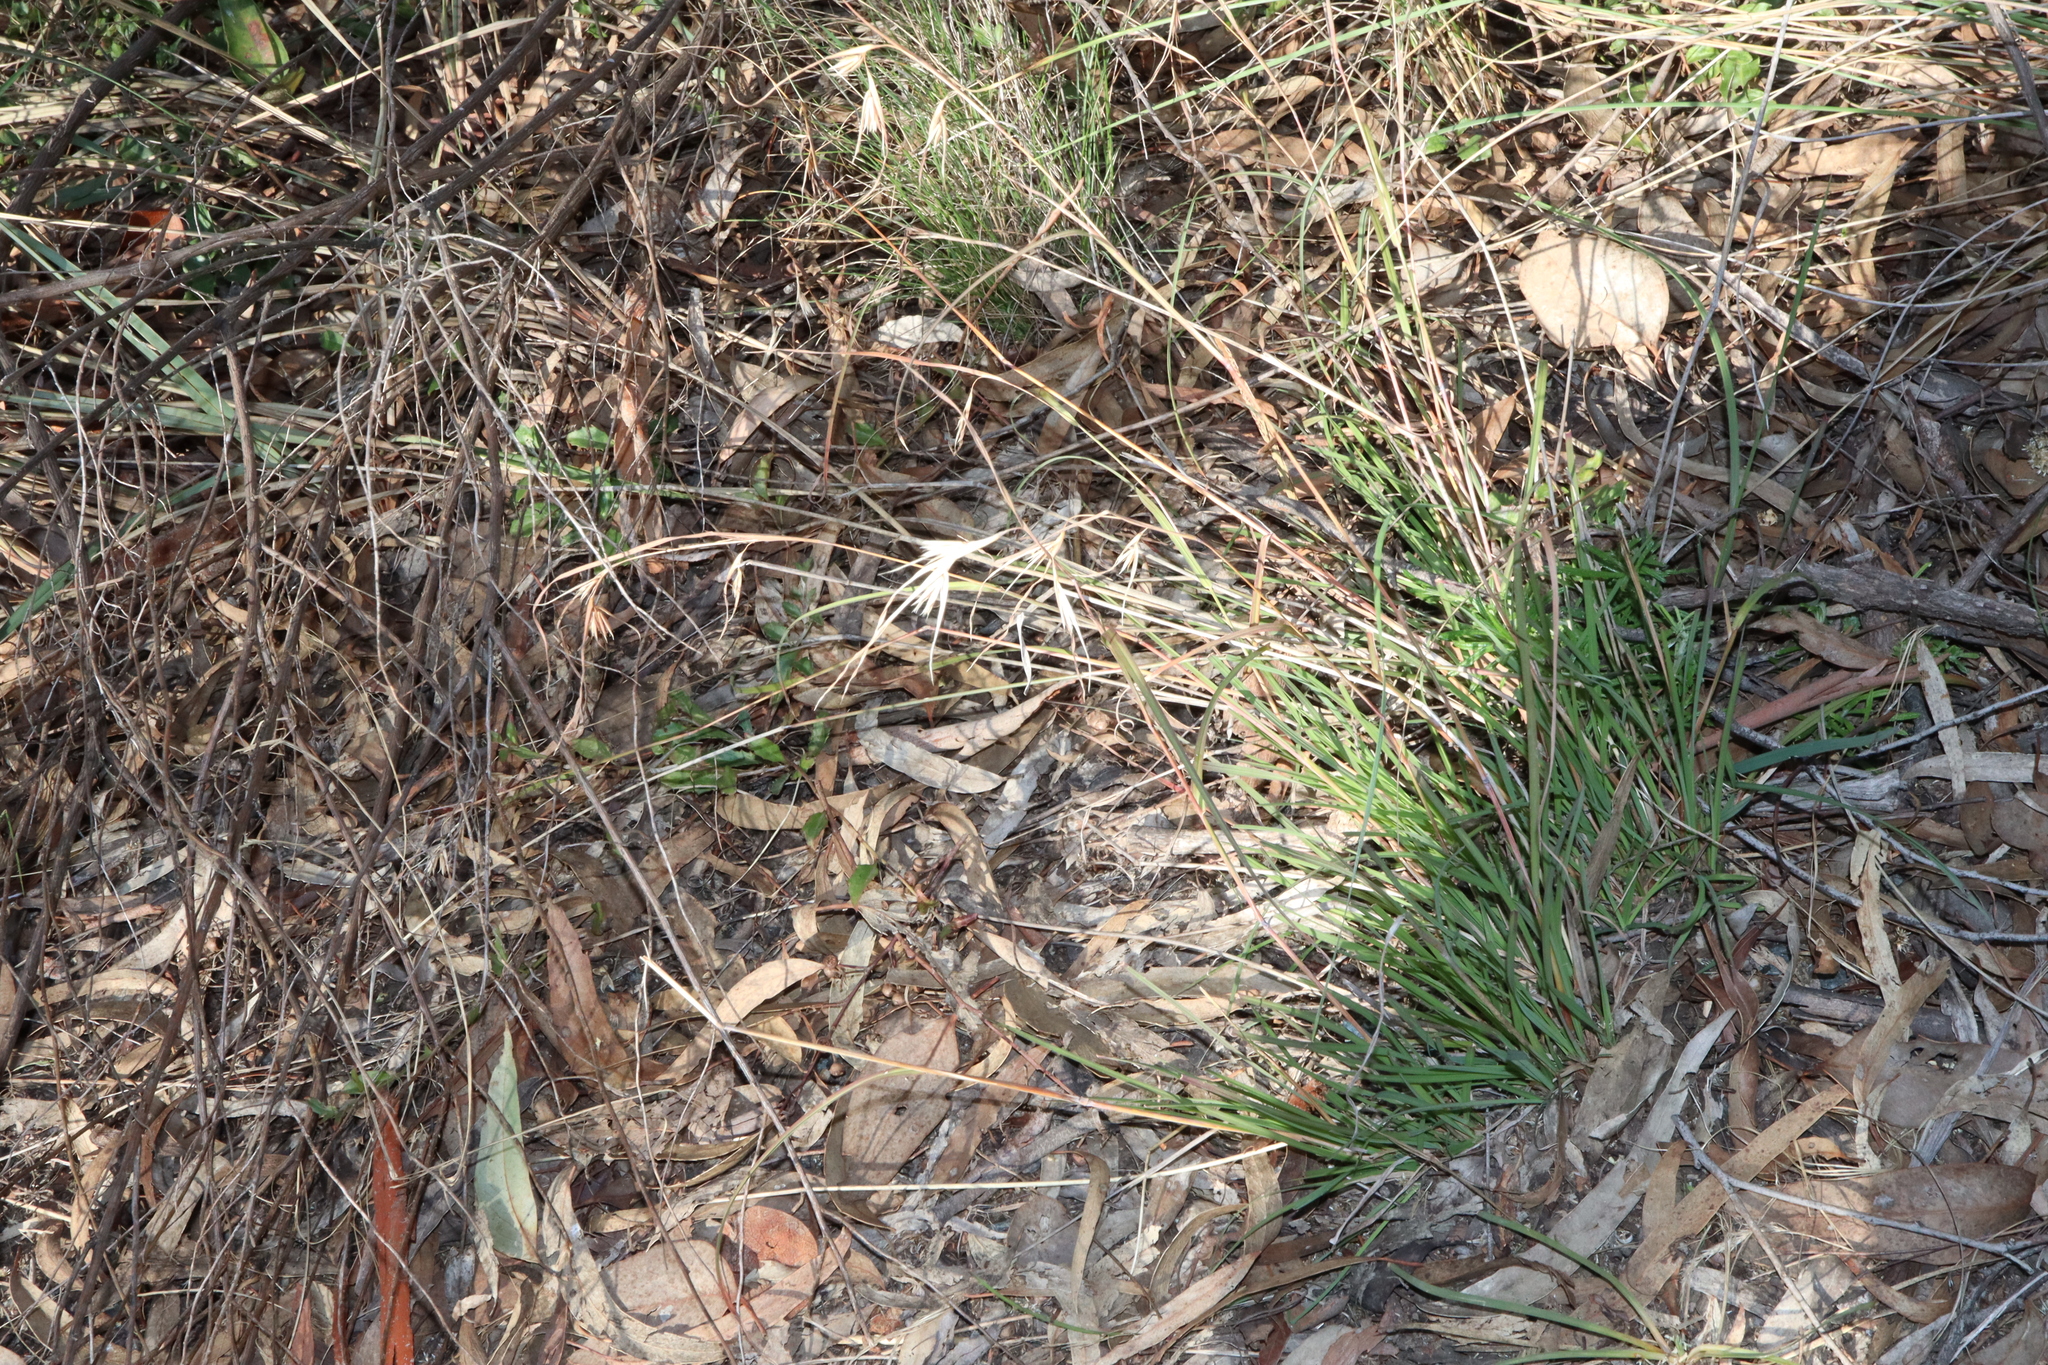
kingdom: Plantae
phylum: Tracheophyta
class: Liliopsida
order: Poales
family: Poaceae
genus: Themeda
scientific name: Themeda triandra
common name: Kangaroo grass
